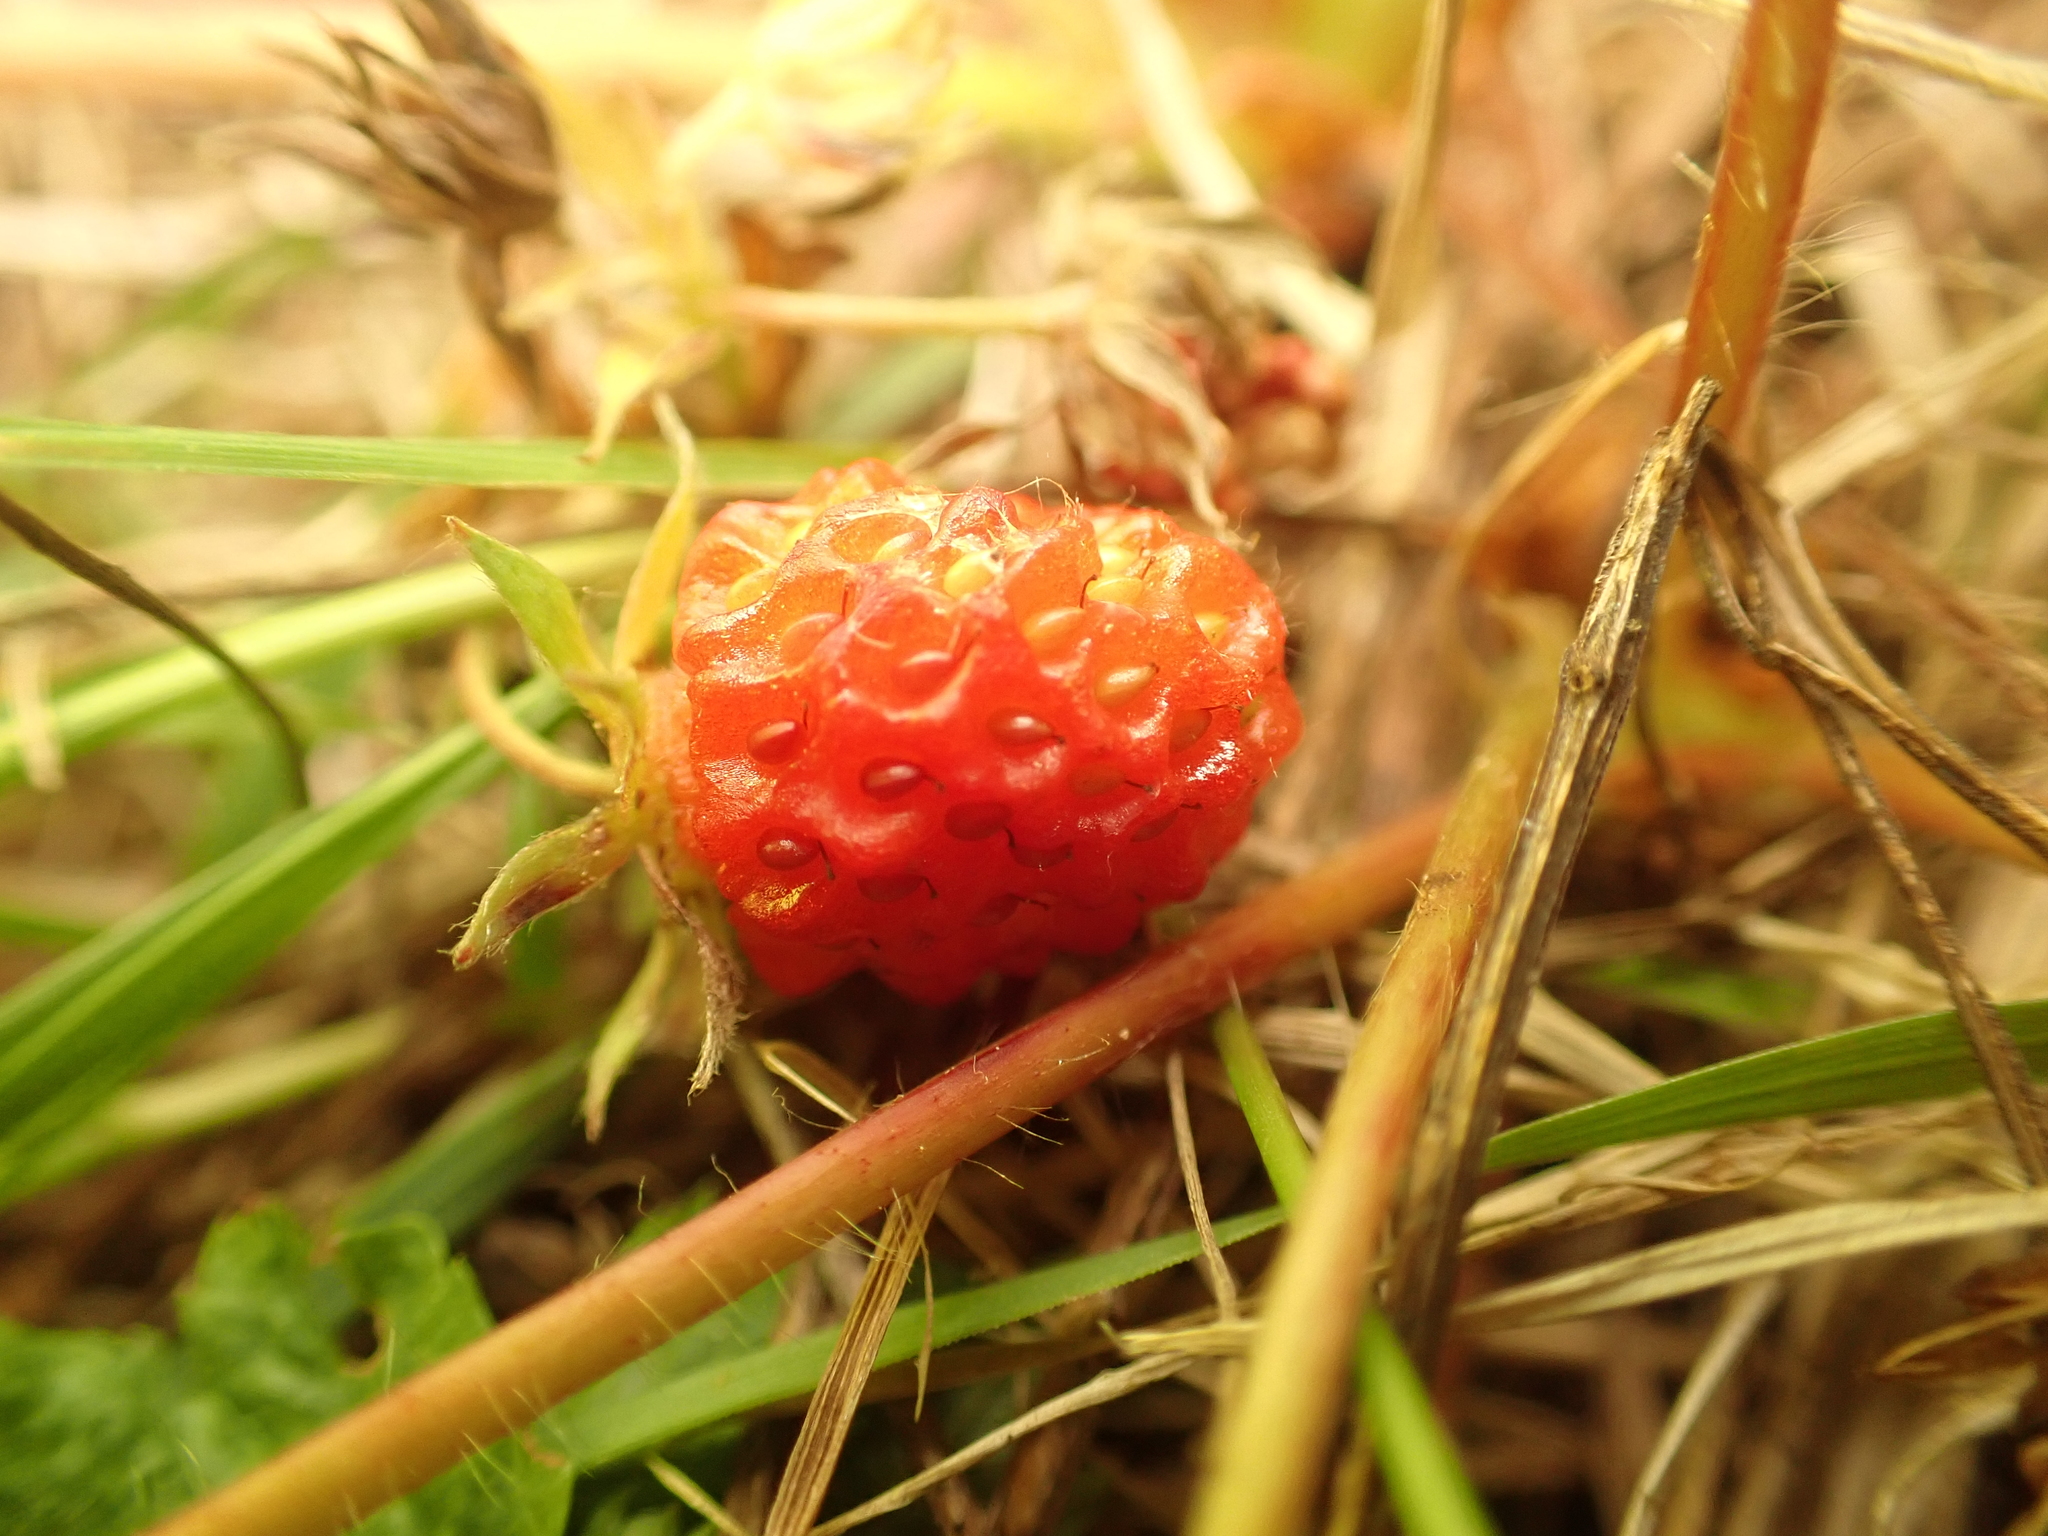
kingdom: Plantae
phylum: Tracheophyta
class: Magnoliopsida
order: Rosales
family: Rosaceae
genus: Fragaria
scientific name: Fragaria virginiana
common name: Thickleaved wild strawberry
